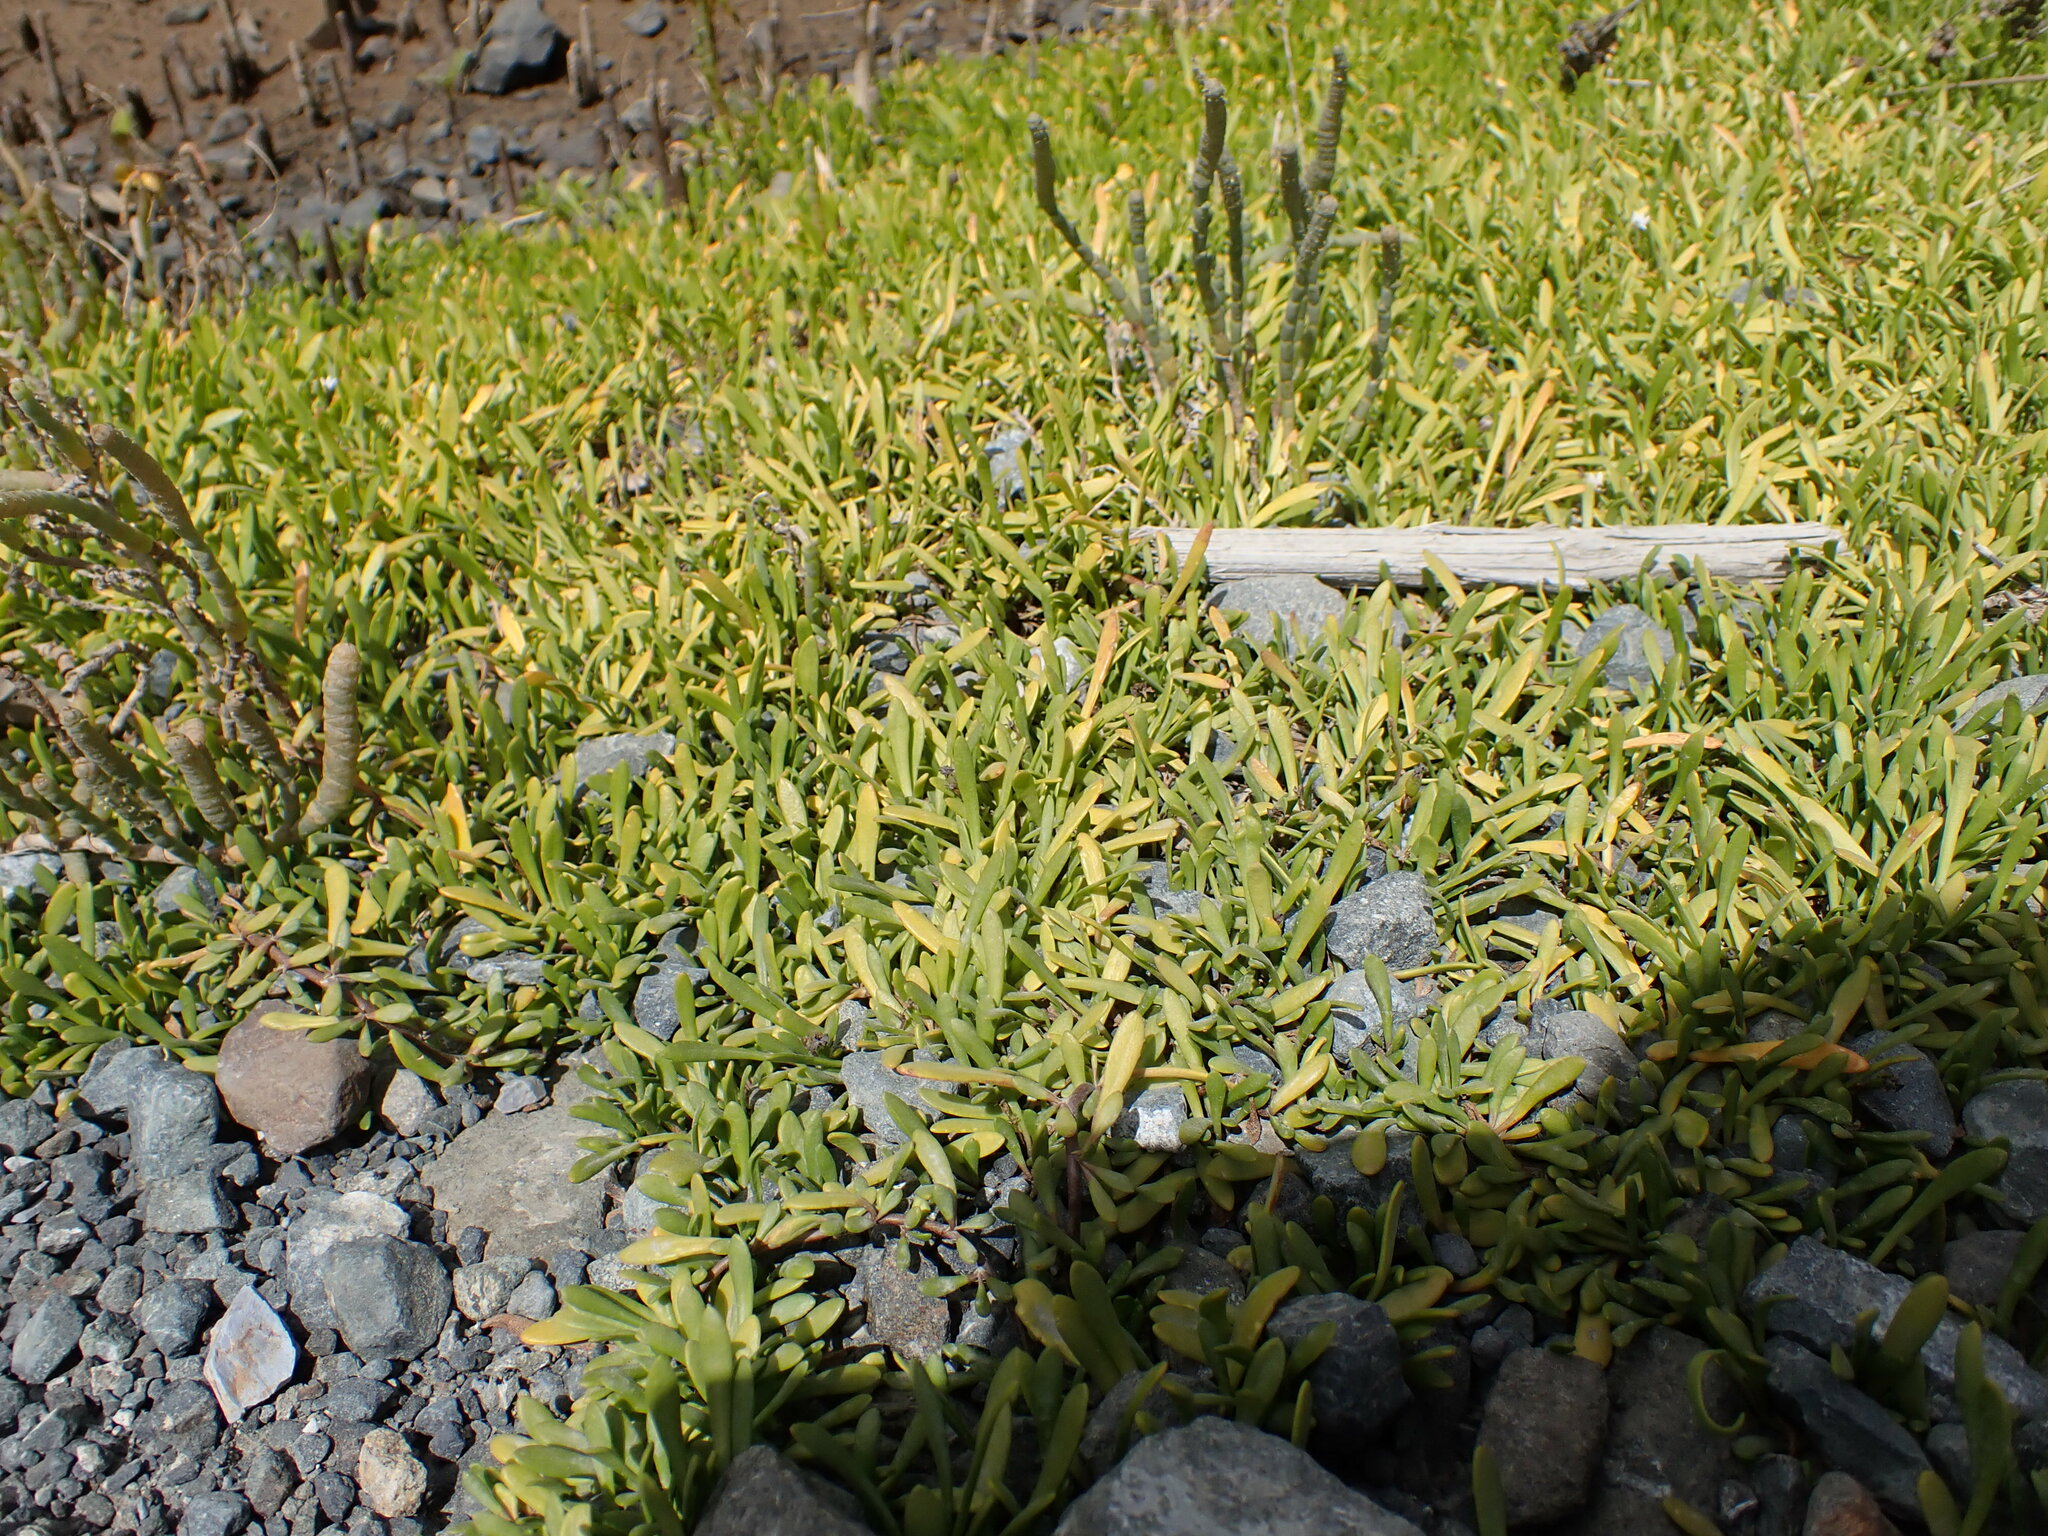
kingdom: Plantae
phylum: Tracheophyta
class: Magnoliopsida
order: Asterales
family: Goodeniaceae
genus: Goodenia
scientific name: Goodenia radicans
